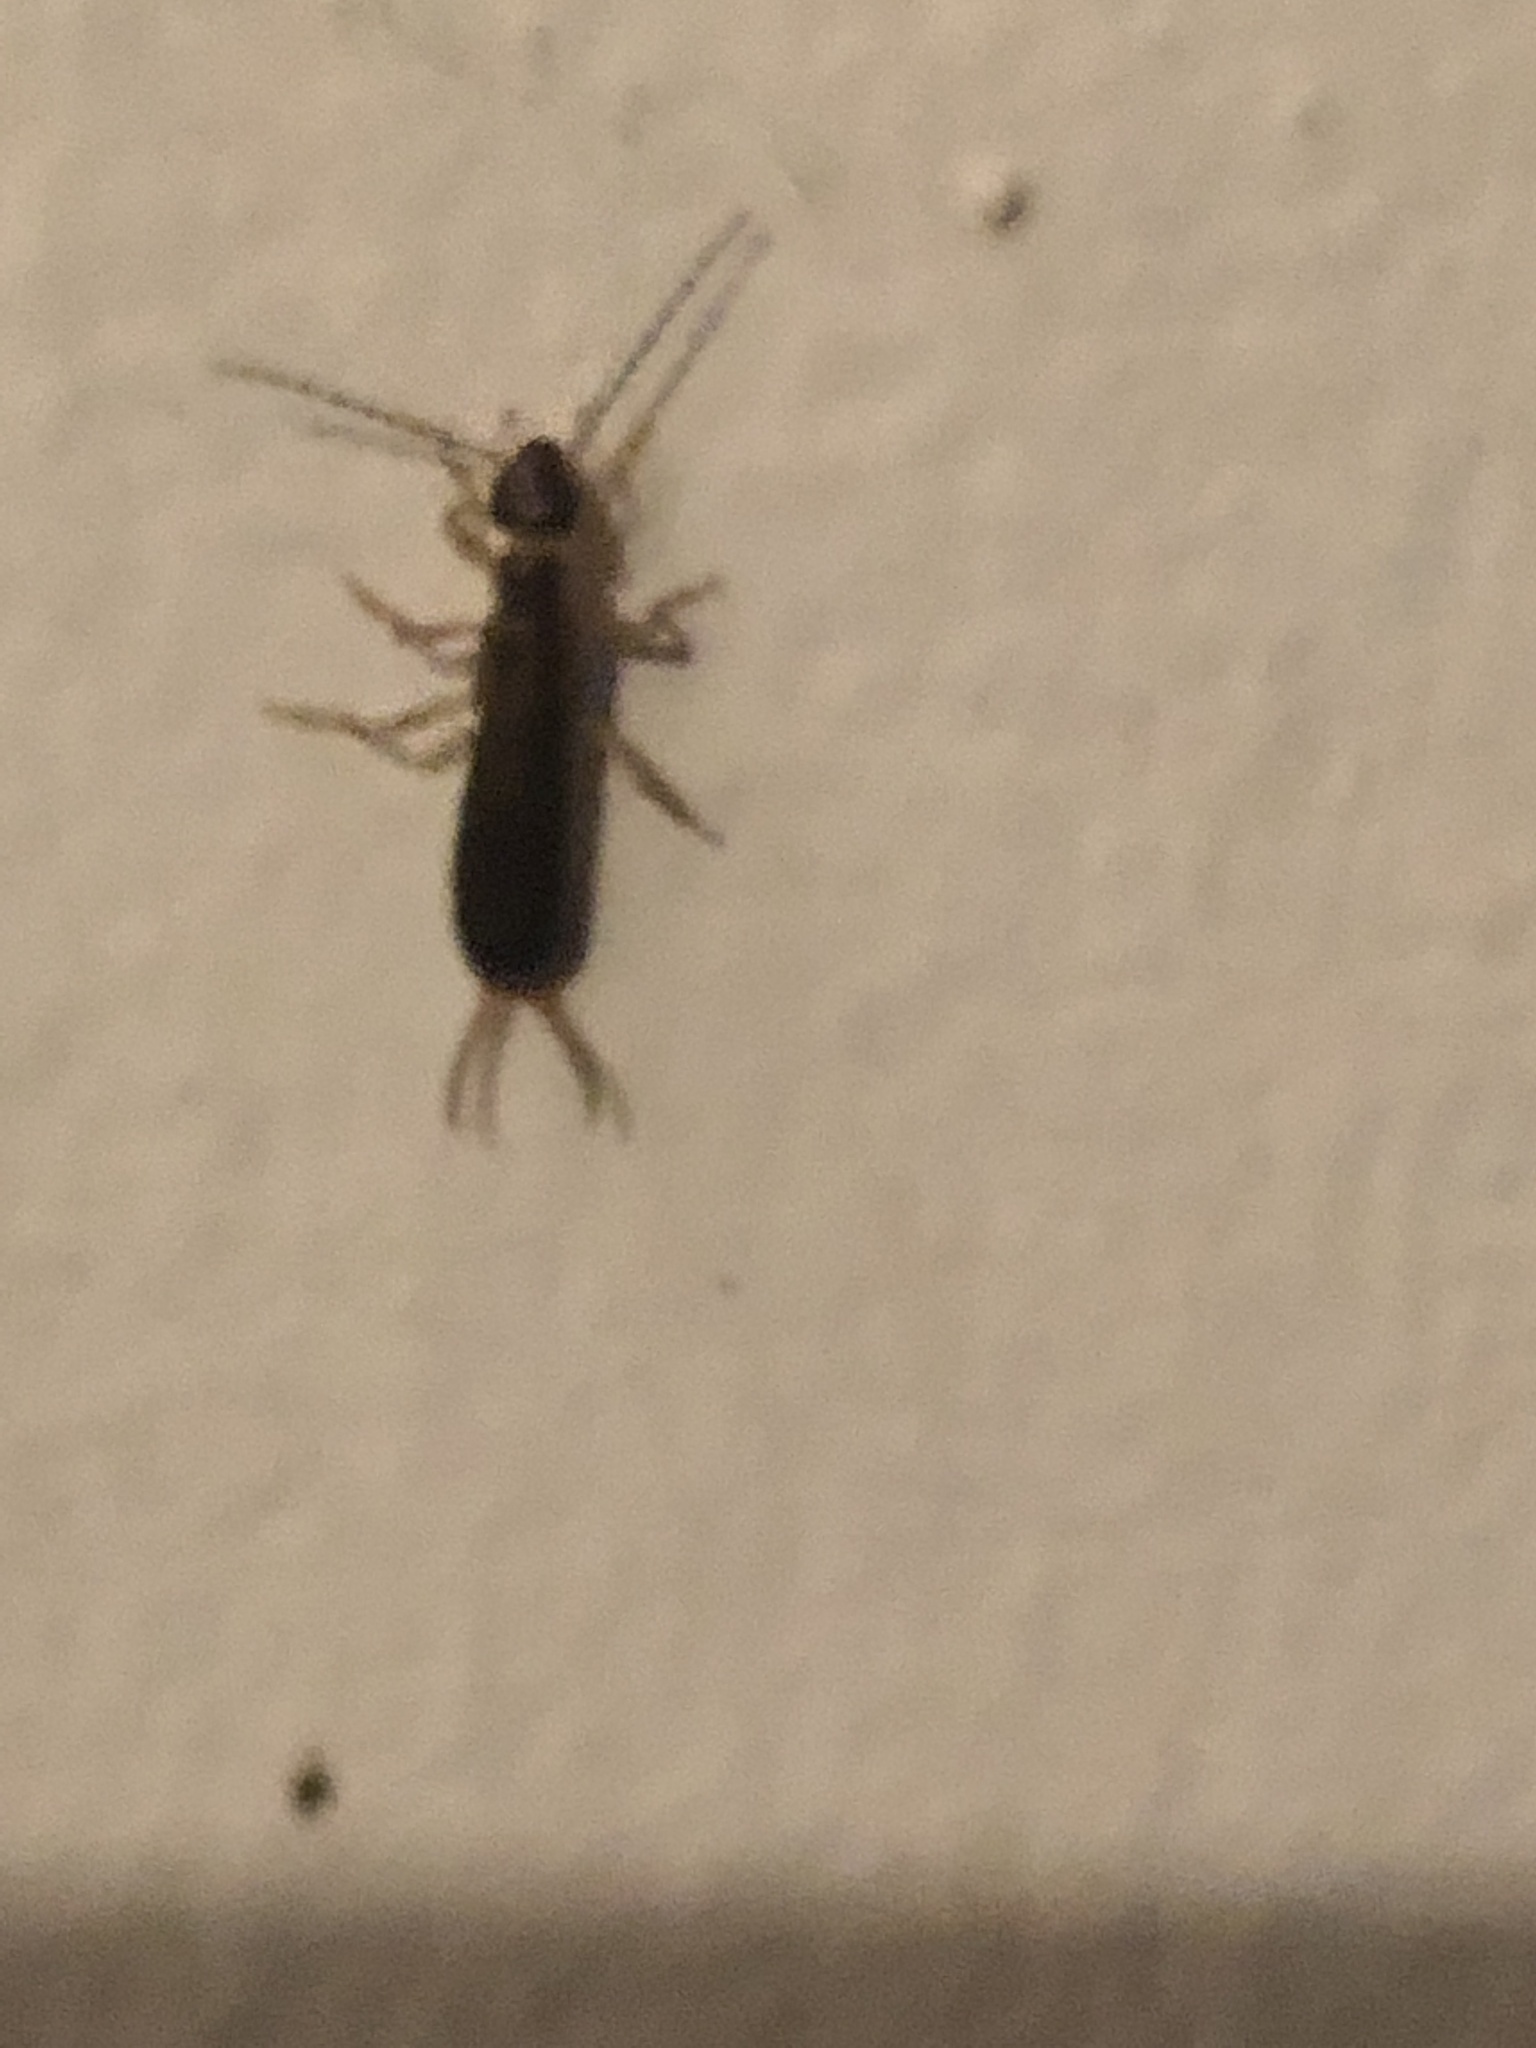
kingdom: Animalia
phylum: Arthropoda
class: Insecta
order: Dermaptera
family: Forficulidae
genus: Forficula
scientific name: Forficula
